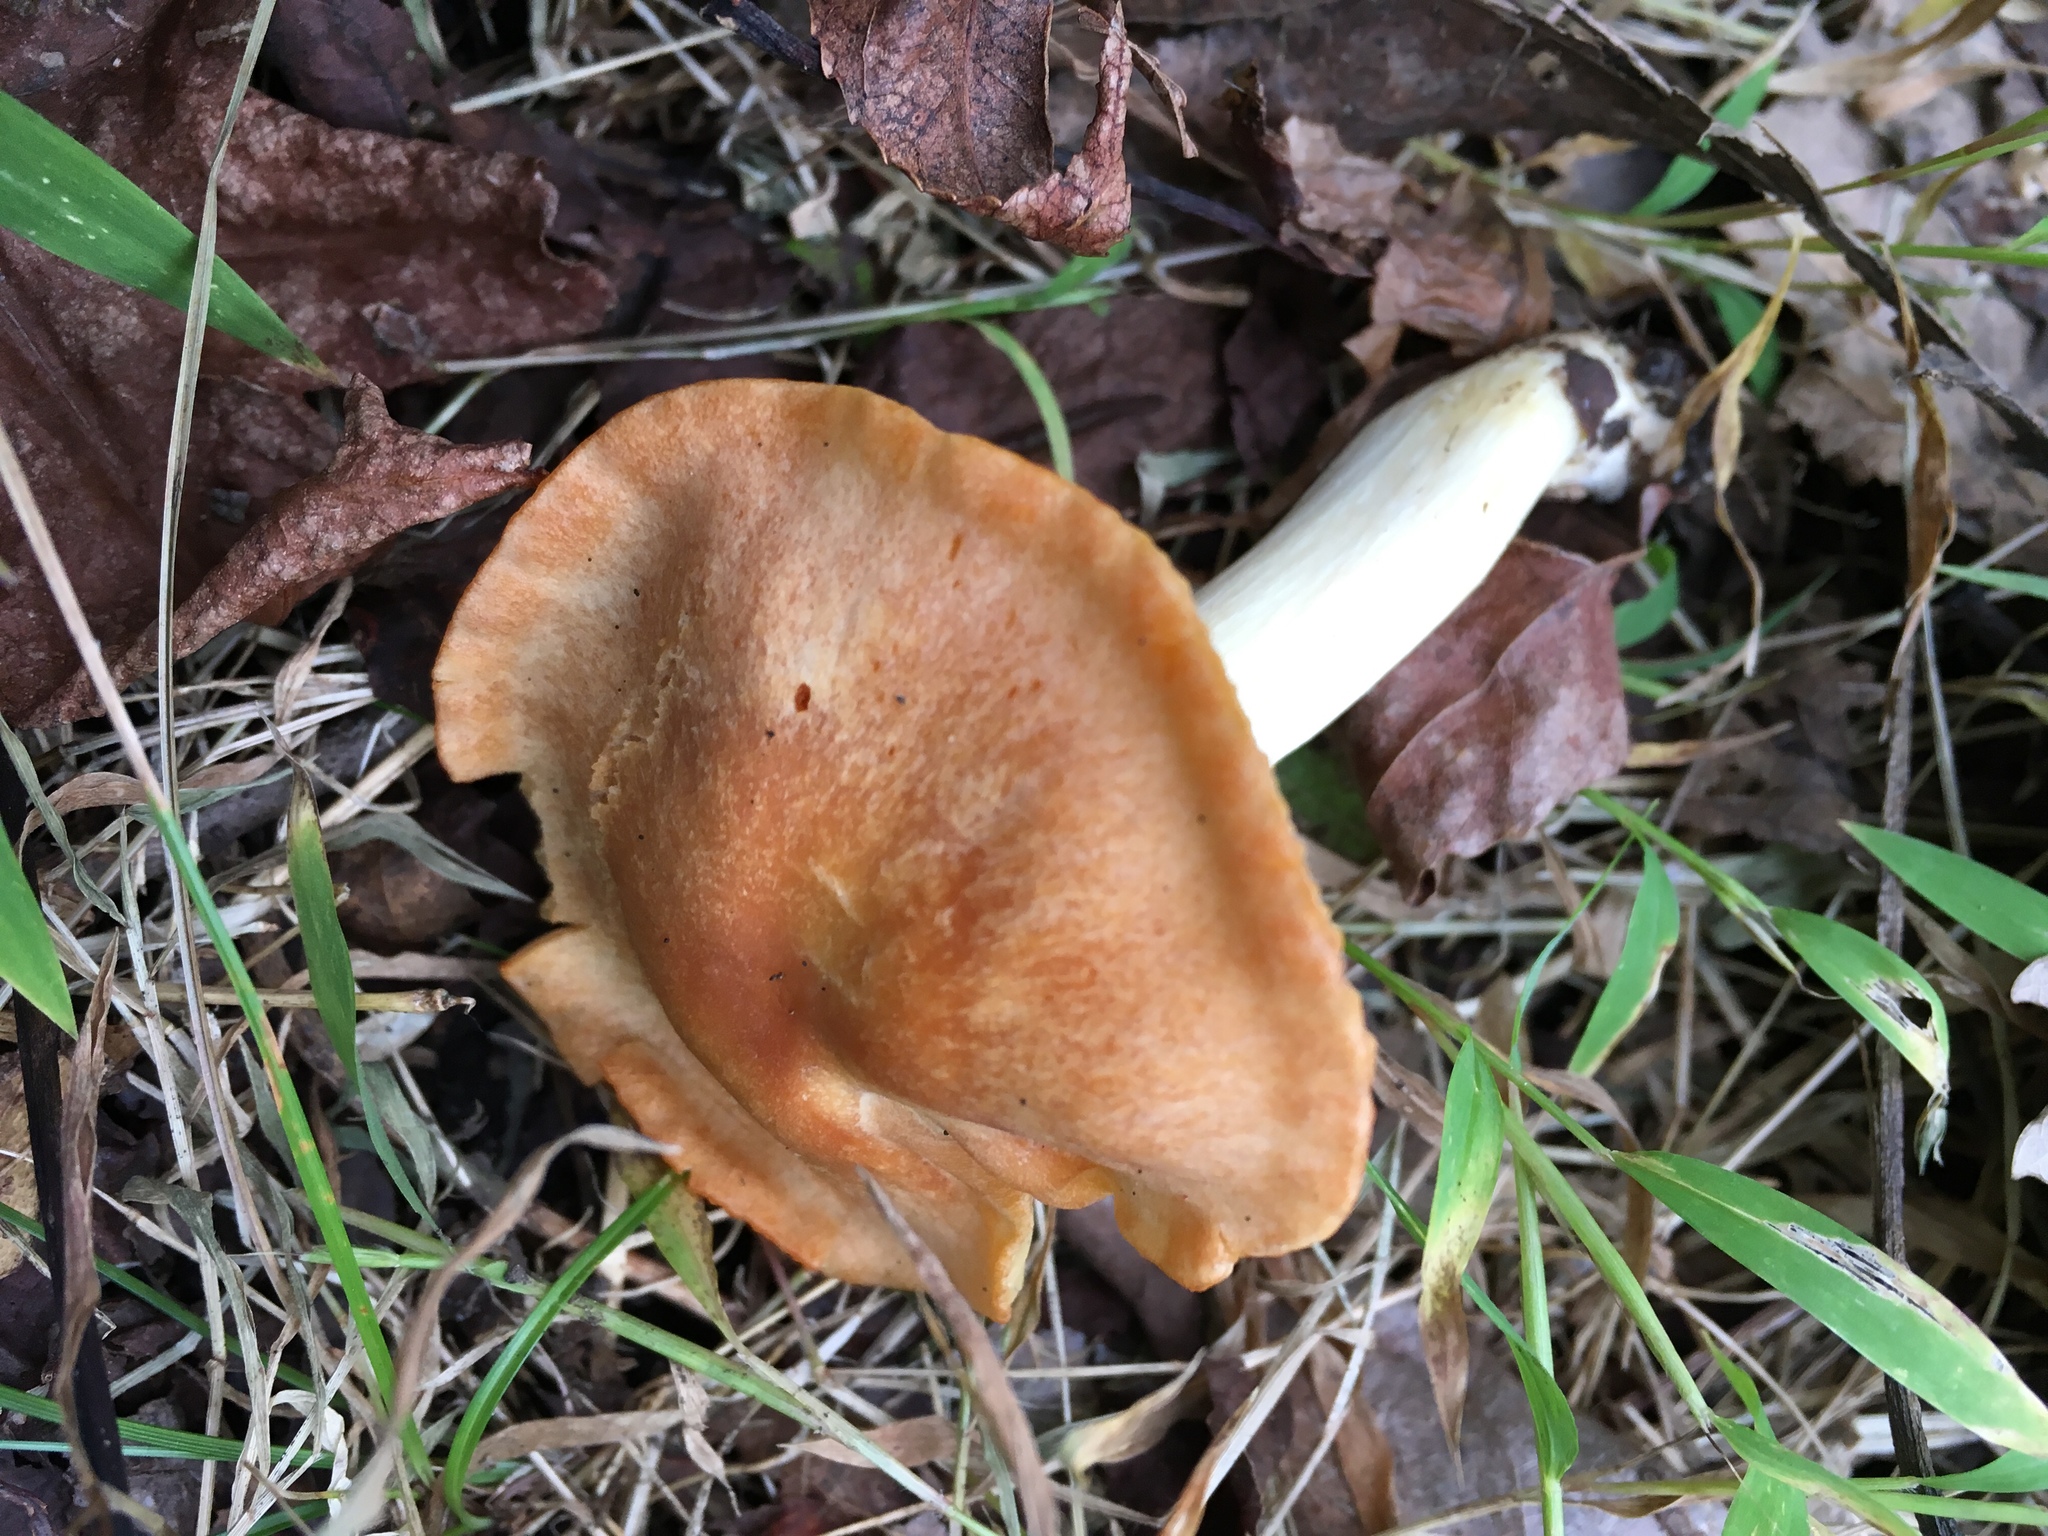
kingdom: Fungi
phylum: Basidiomycota
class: Agaricomycetes
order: Agaricales
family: Hygrophoraceae
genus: Cuphophyllus
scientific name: Cuphophyllus pratensis
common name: Meadow waxcap
